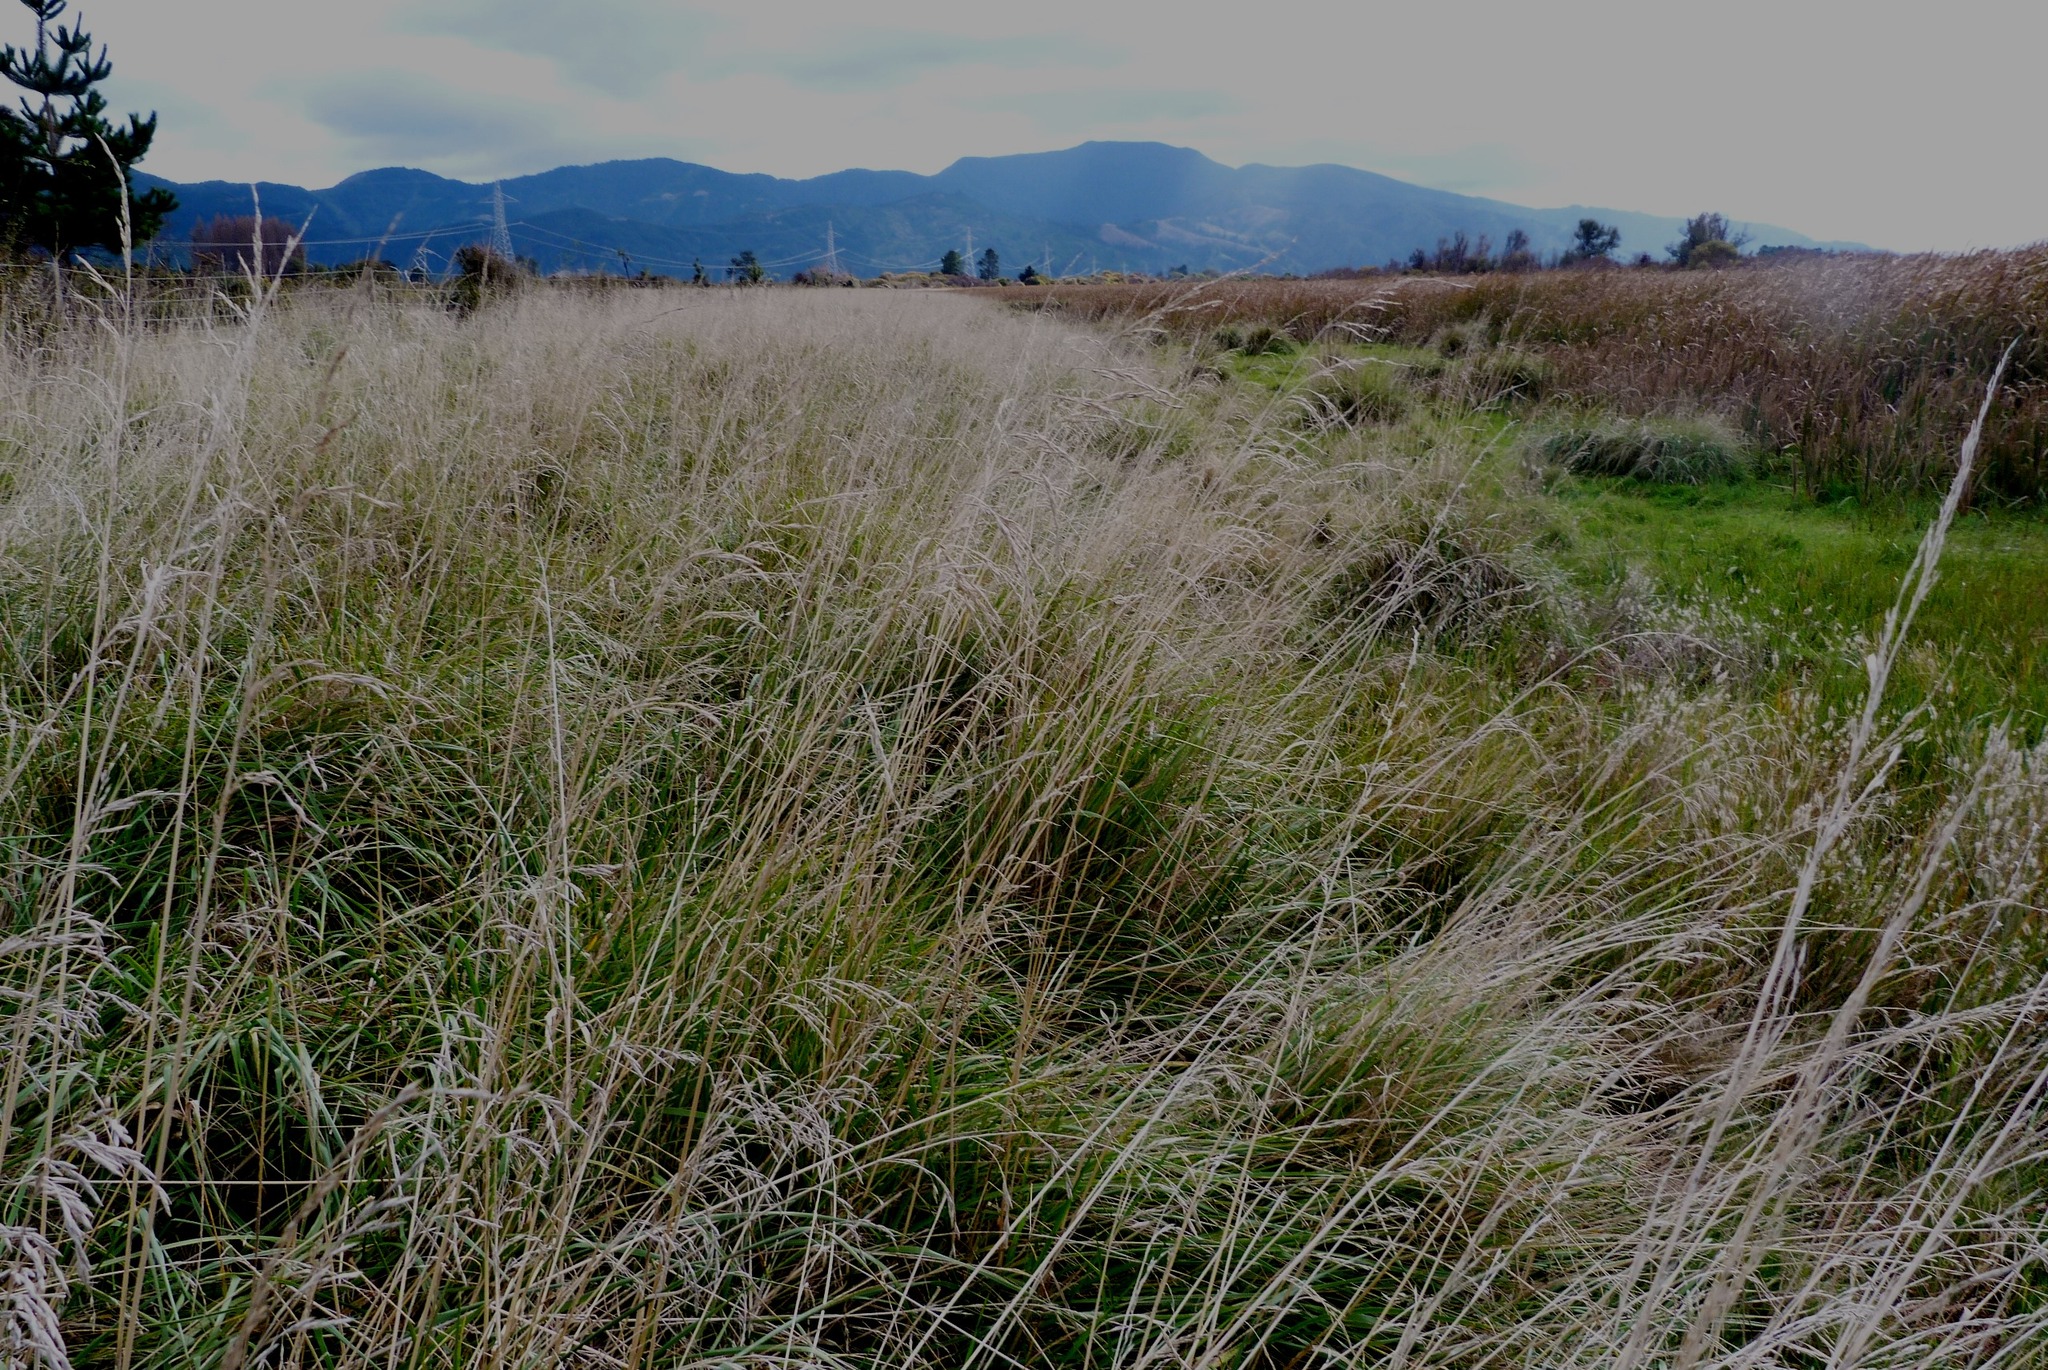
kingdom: Plantae
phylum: Tracheophyta
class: Liliopsida
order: Poales
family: Poaceae
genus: Lolium
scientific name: Lolium arundinaceum
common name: Reed fescue
